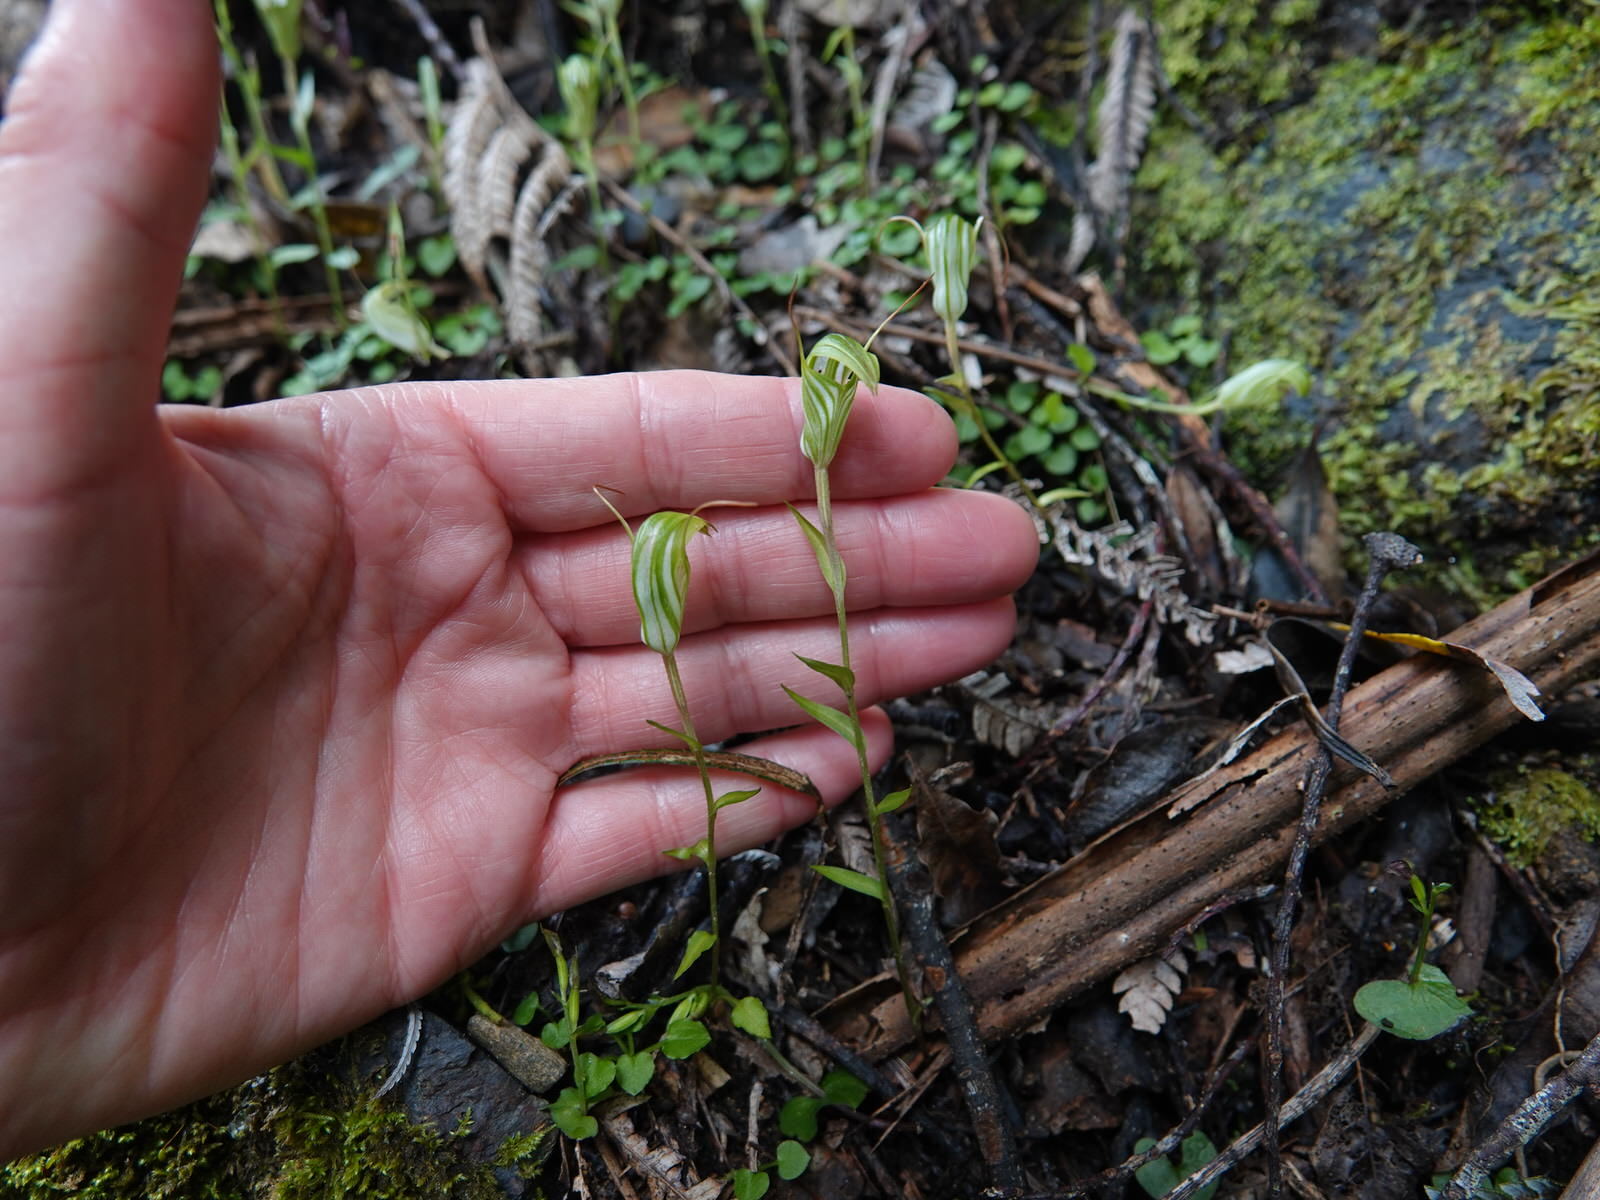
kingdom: Plantae
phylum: Tracheophyta
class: Liliopsida
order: Asparagales
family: Orchidaceae
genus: Pterostylis
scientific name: Pterostylis alobula
